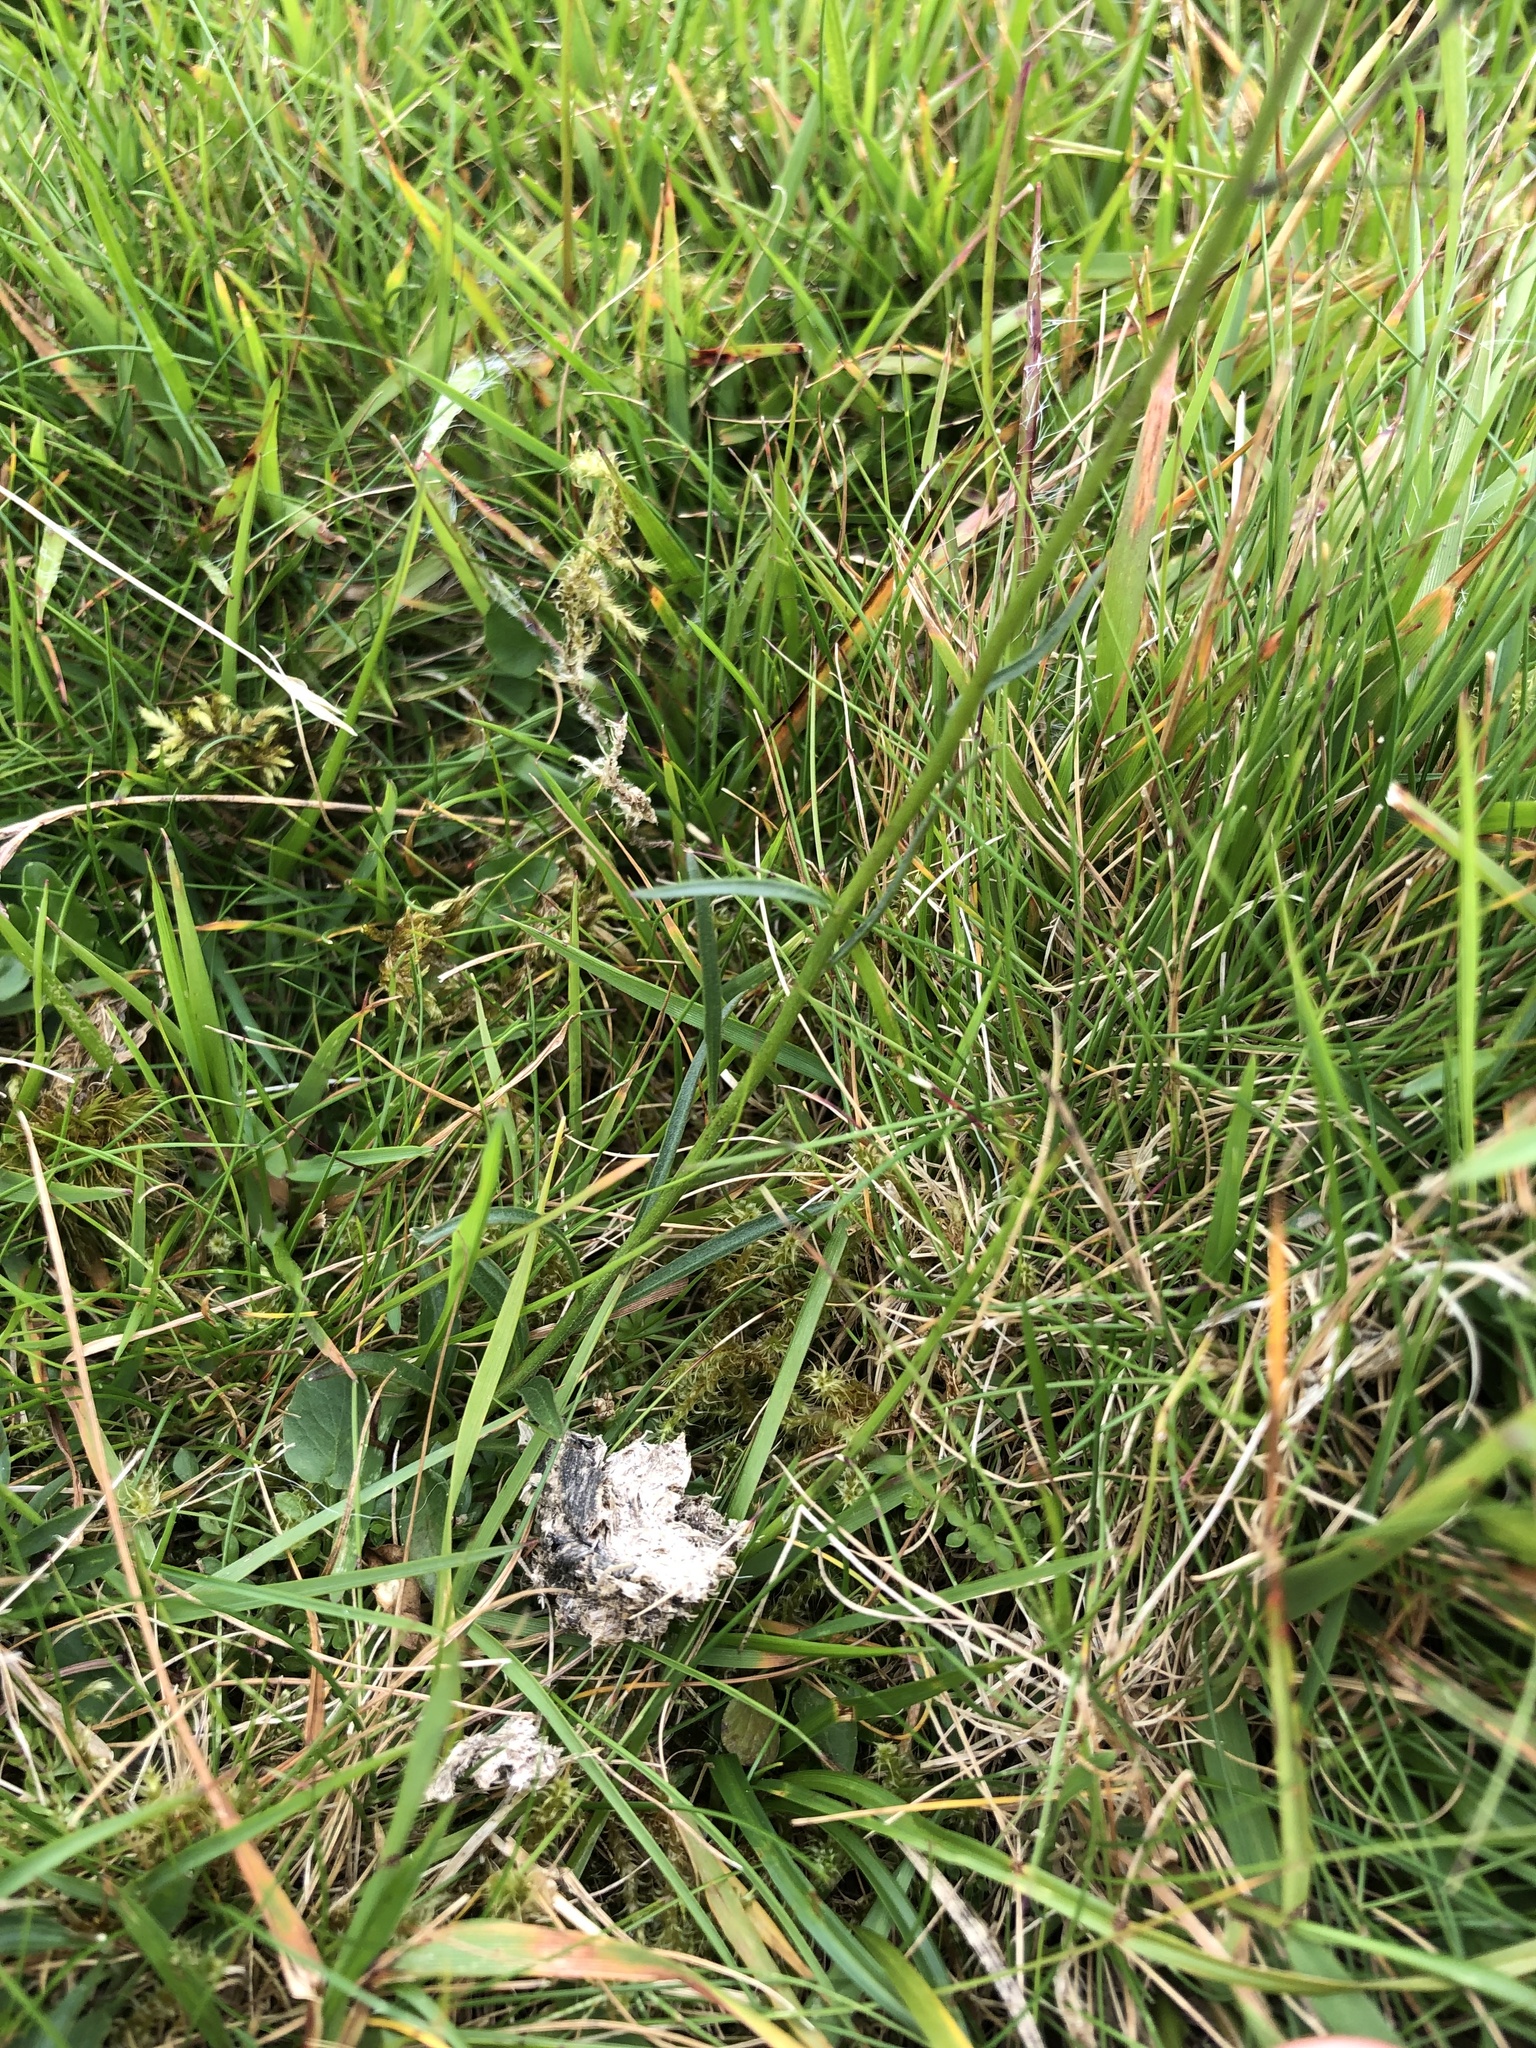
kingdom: Plantae
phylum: Tracheophyta
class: Magnoliopsida
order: Asterales
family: Campanulaceae
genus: Campanula
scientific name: Campanula rotundifolia
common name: Harebell
